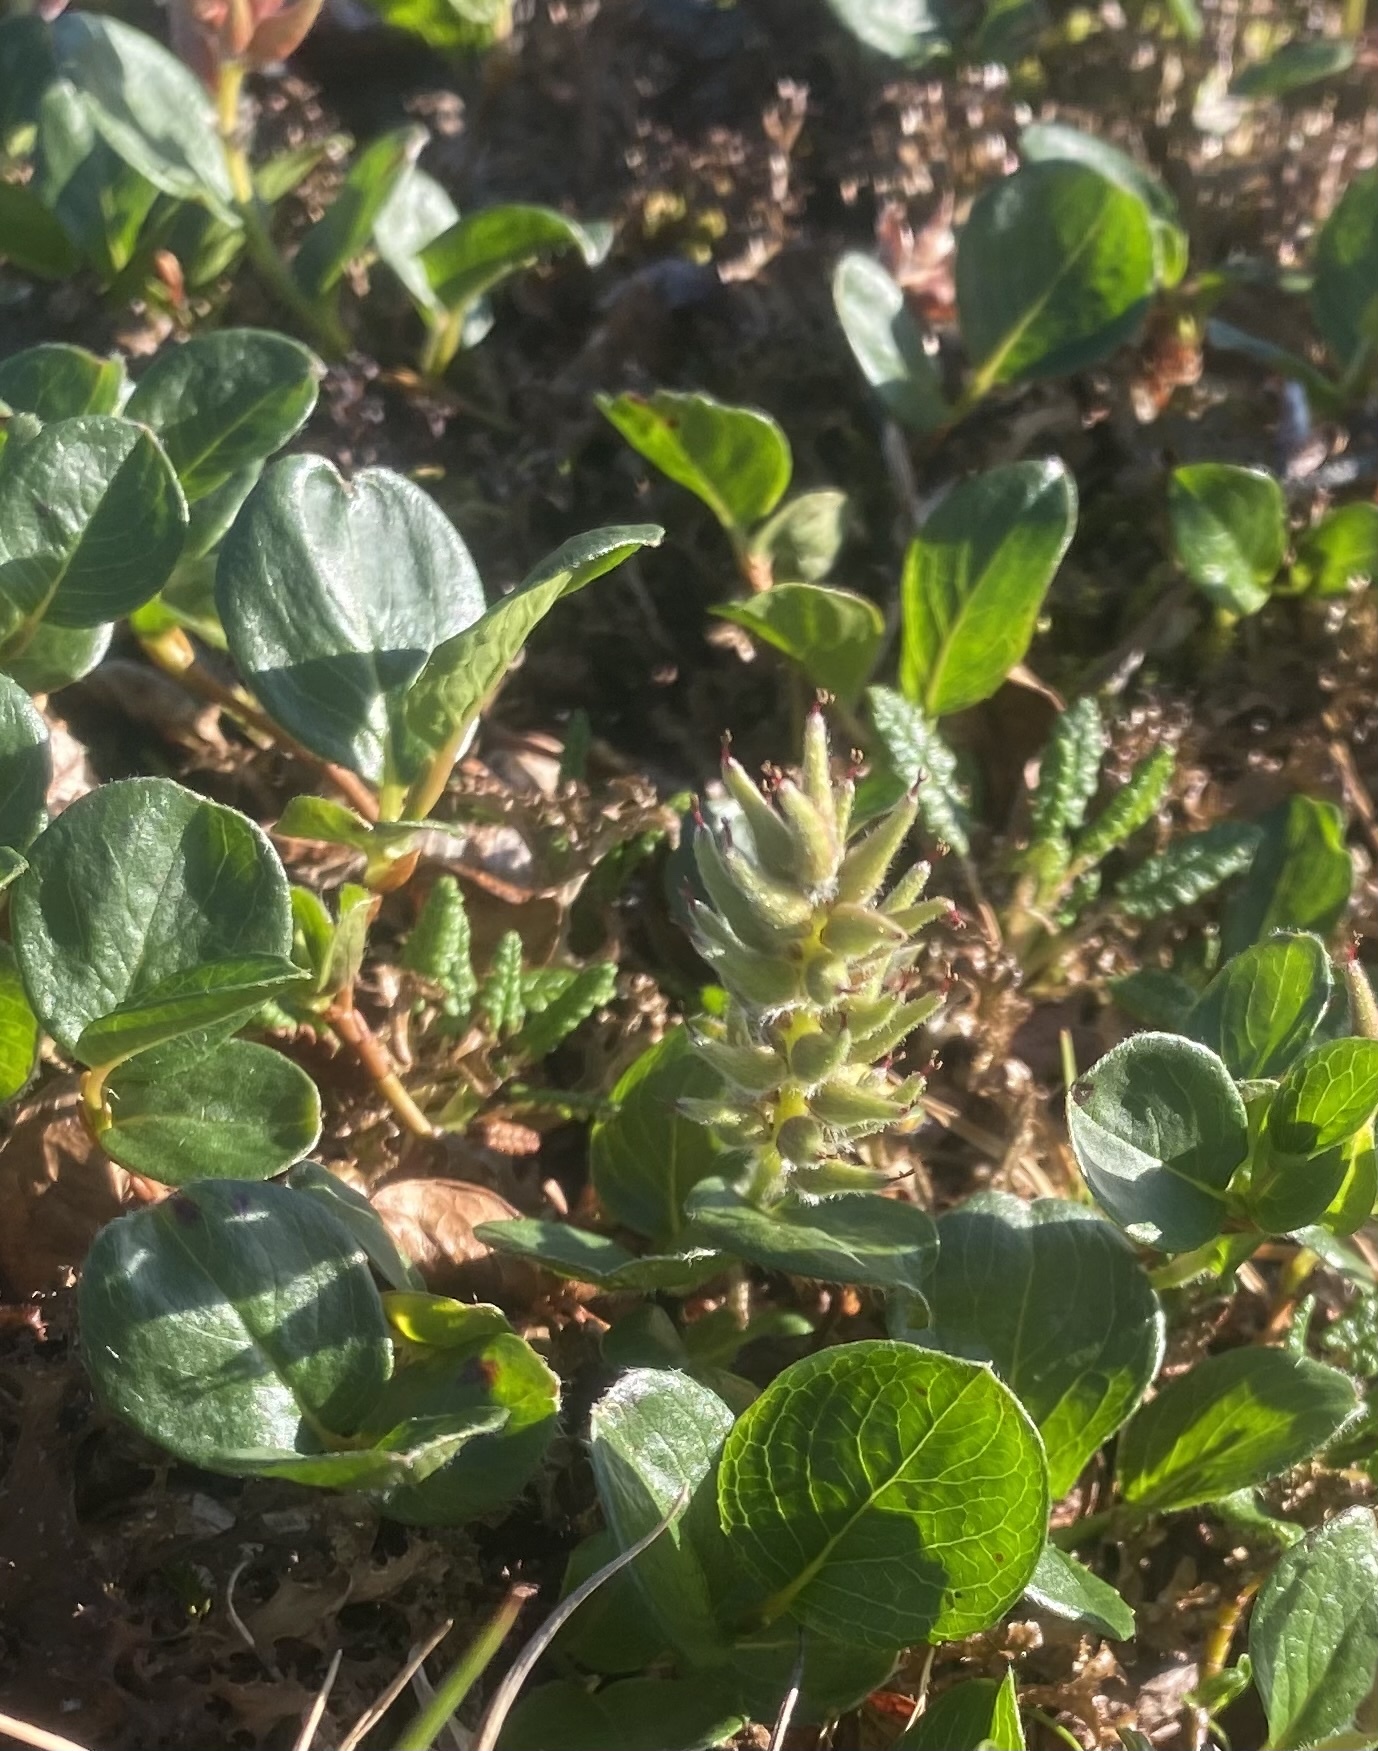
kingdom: Plantae
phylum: Tracheophyta
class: Magnoliopsida
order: Malpighiales
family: Salicaceae
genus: Salix
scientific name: Salix polaris
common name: Polar willow
